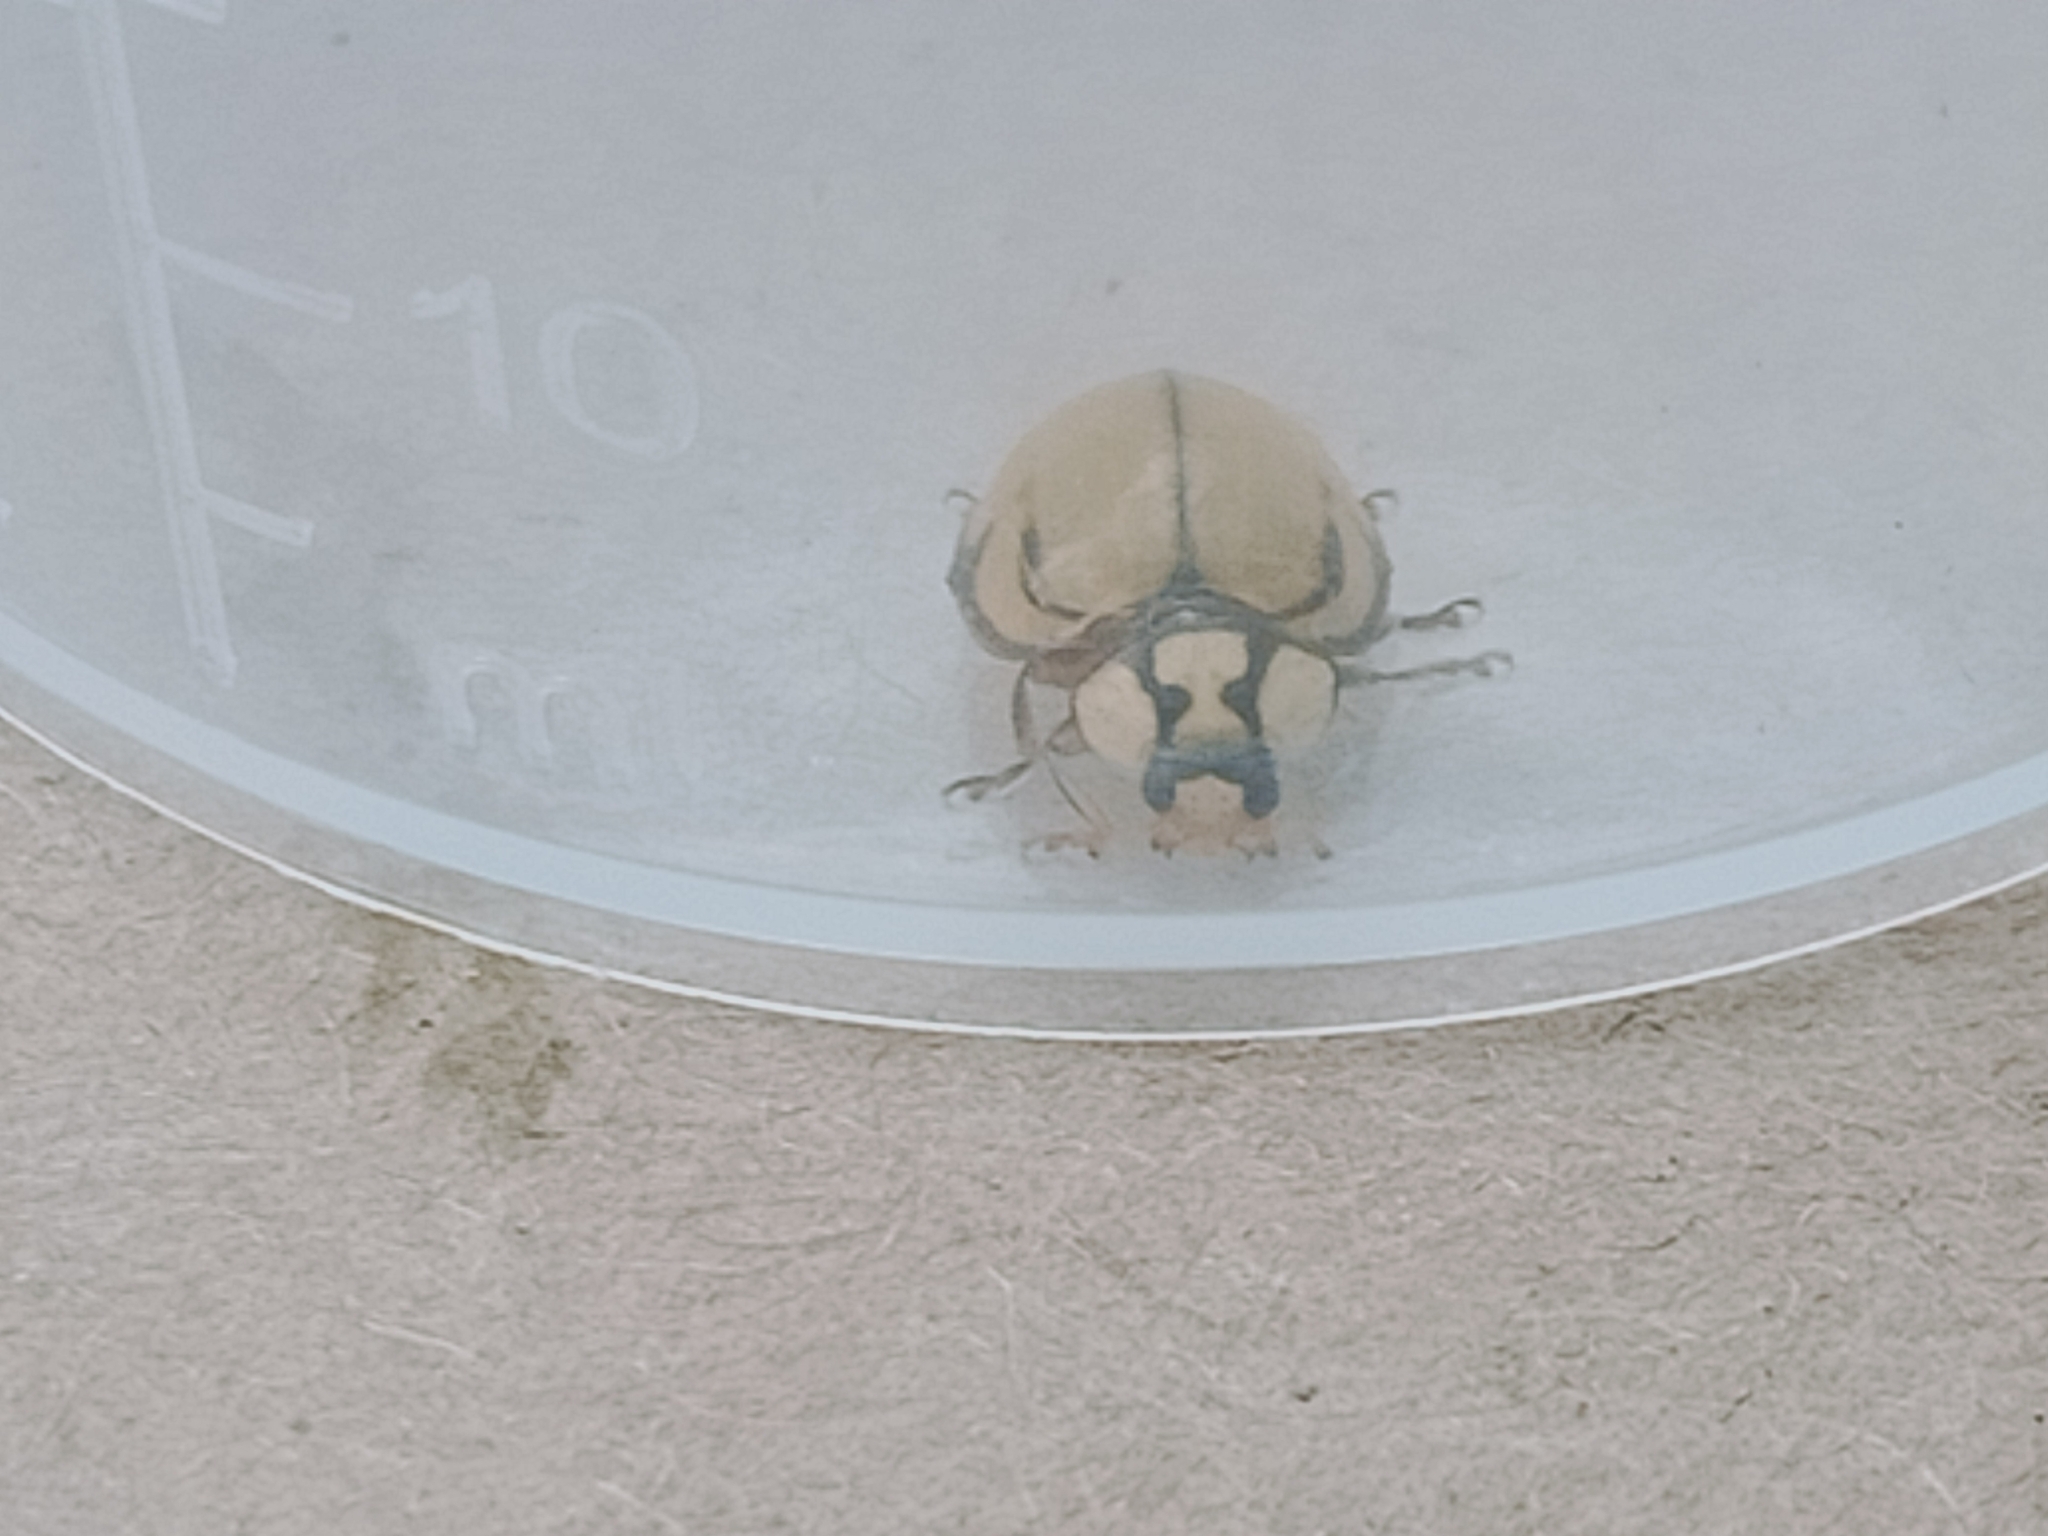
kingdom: Animalia
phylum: Arthropoda
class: Insecta
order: Coleoptera
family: Coccinellidae
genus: Harmonia
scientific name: Harmonia
